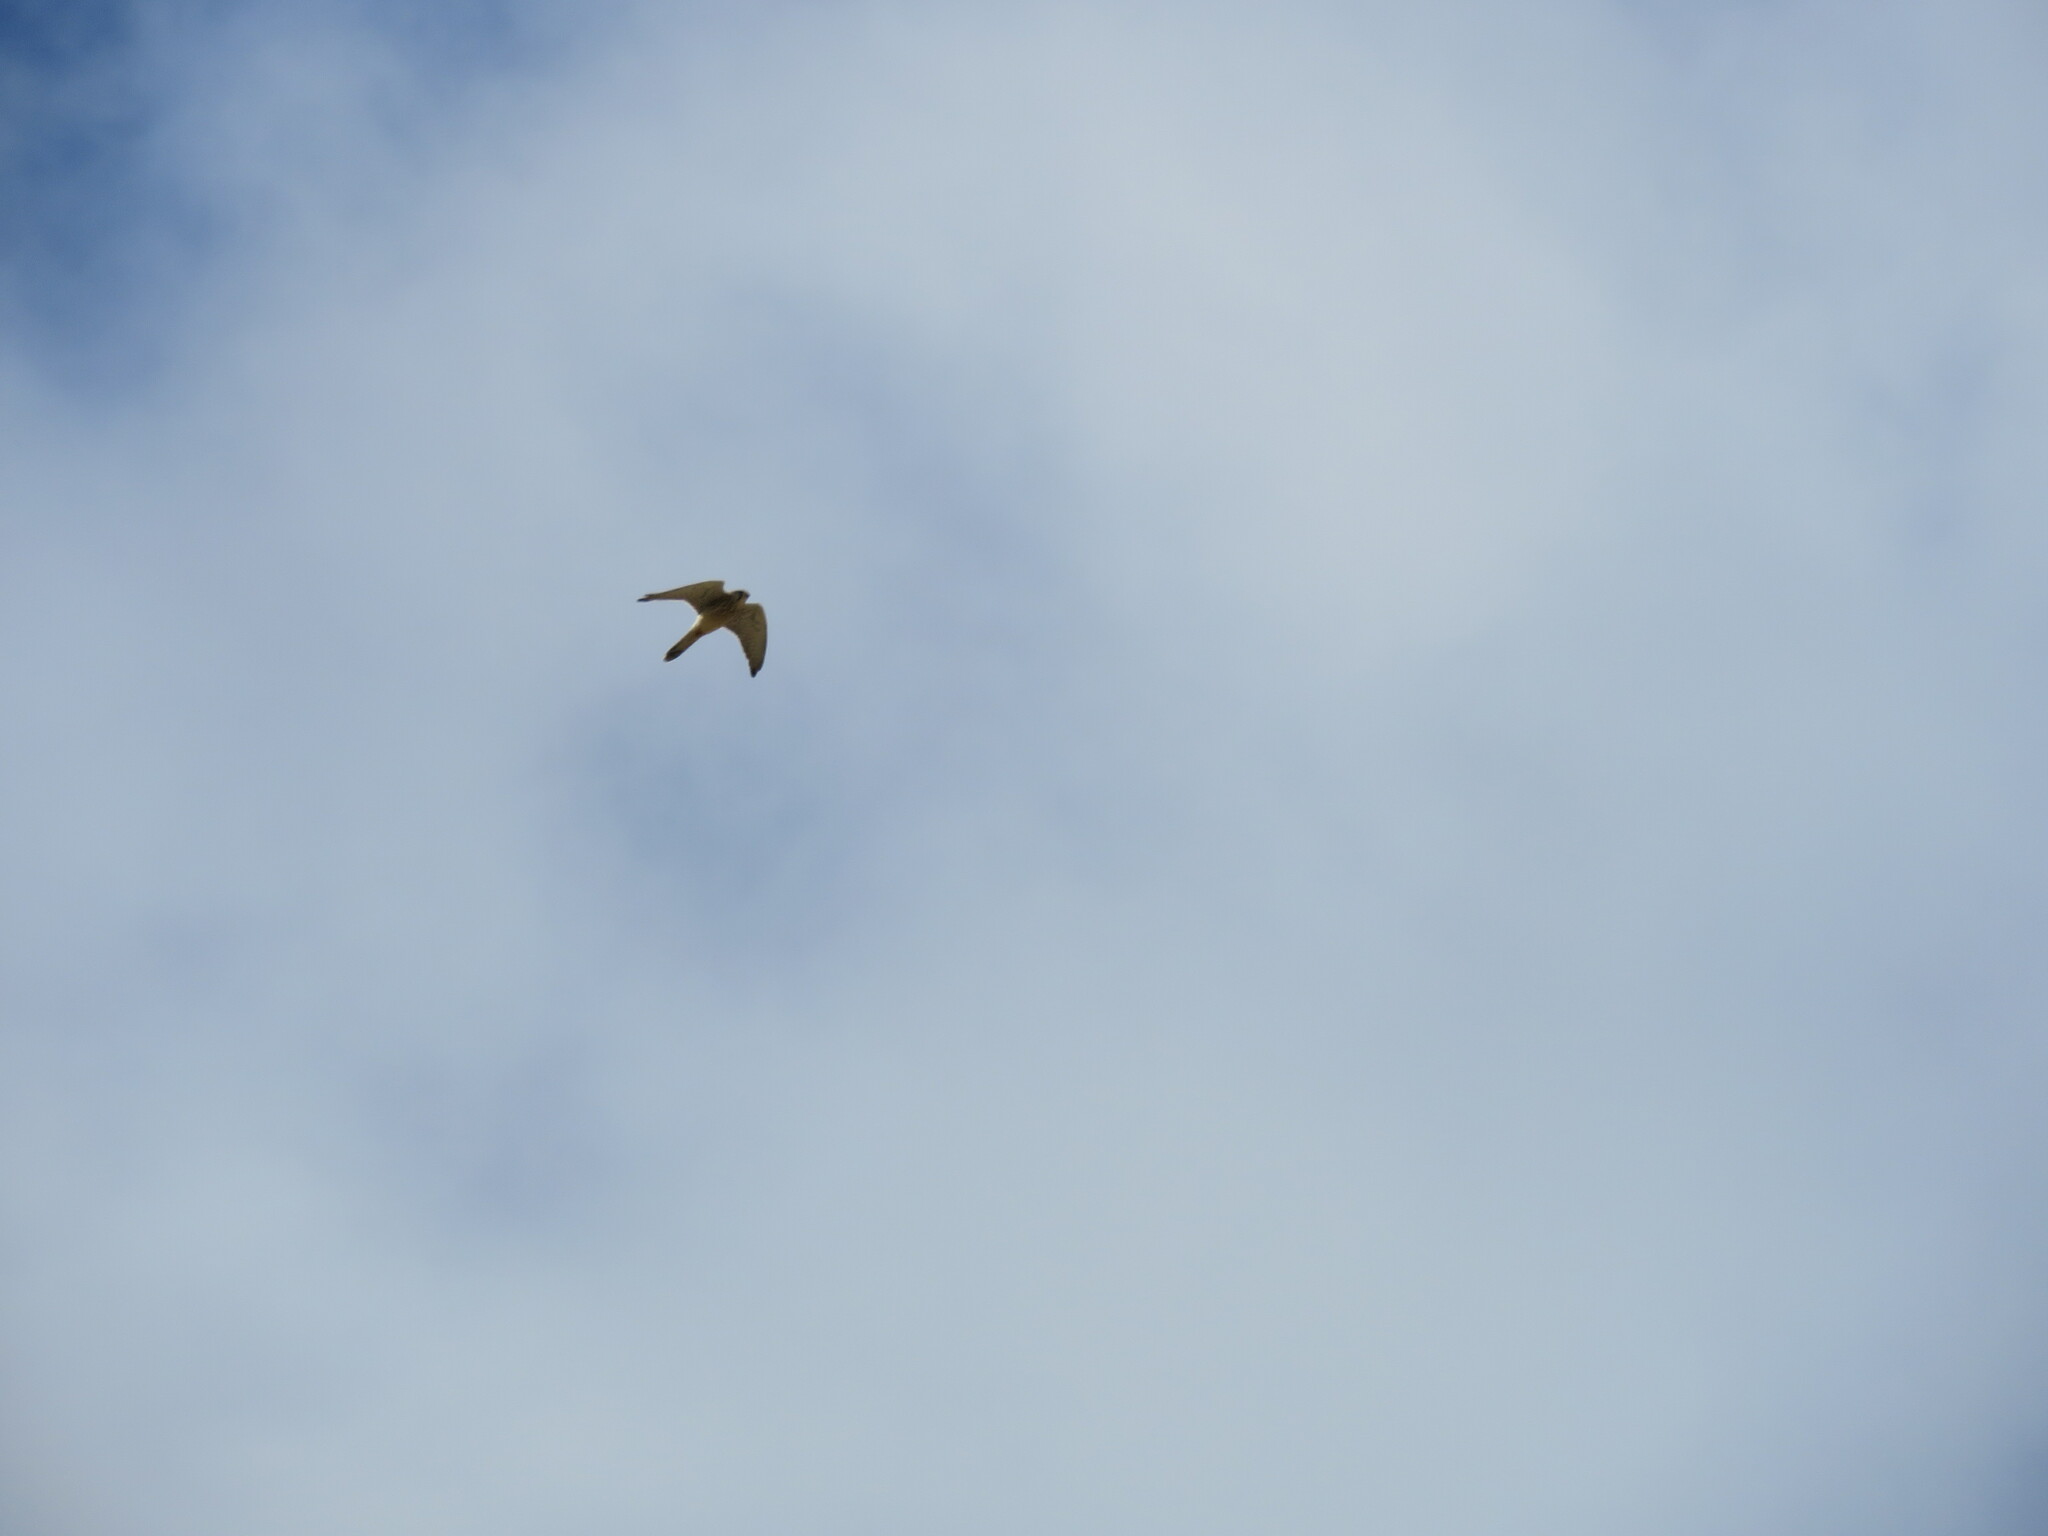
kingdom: Animalia
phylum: Chordata
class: Aves
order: Falconiformes
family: Falconidae
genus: Falco
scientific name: Falco tinnunculus
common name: Common kestrel
